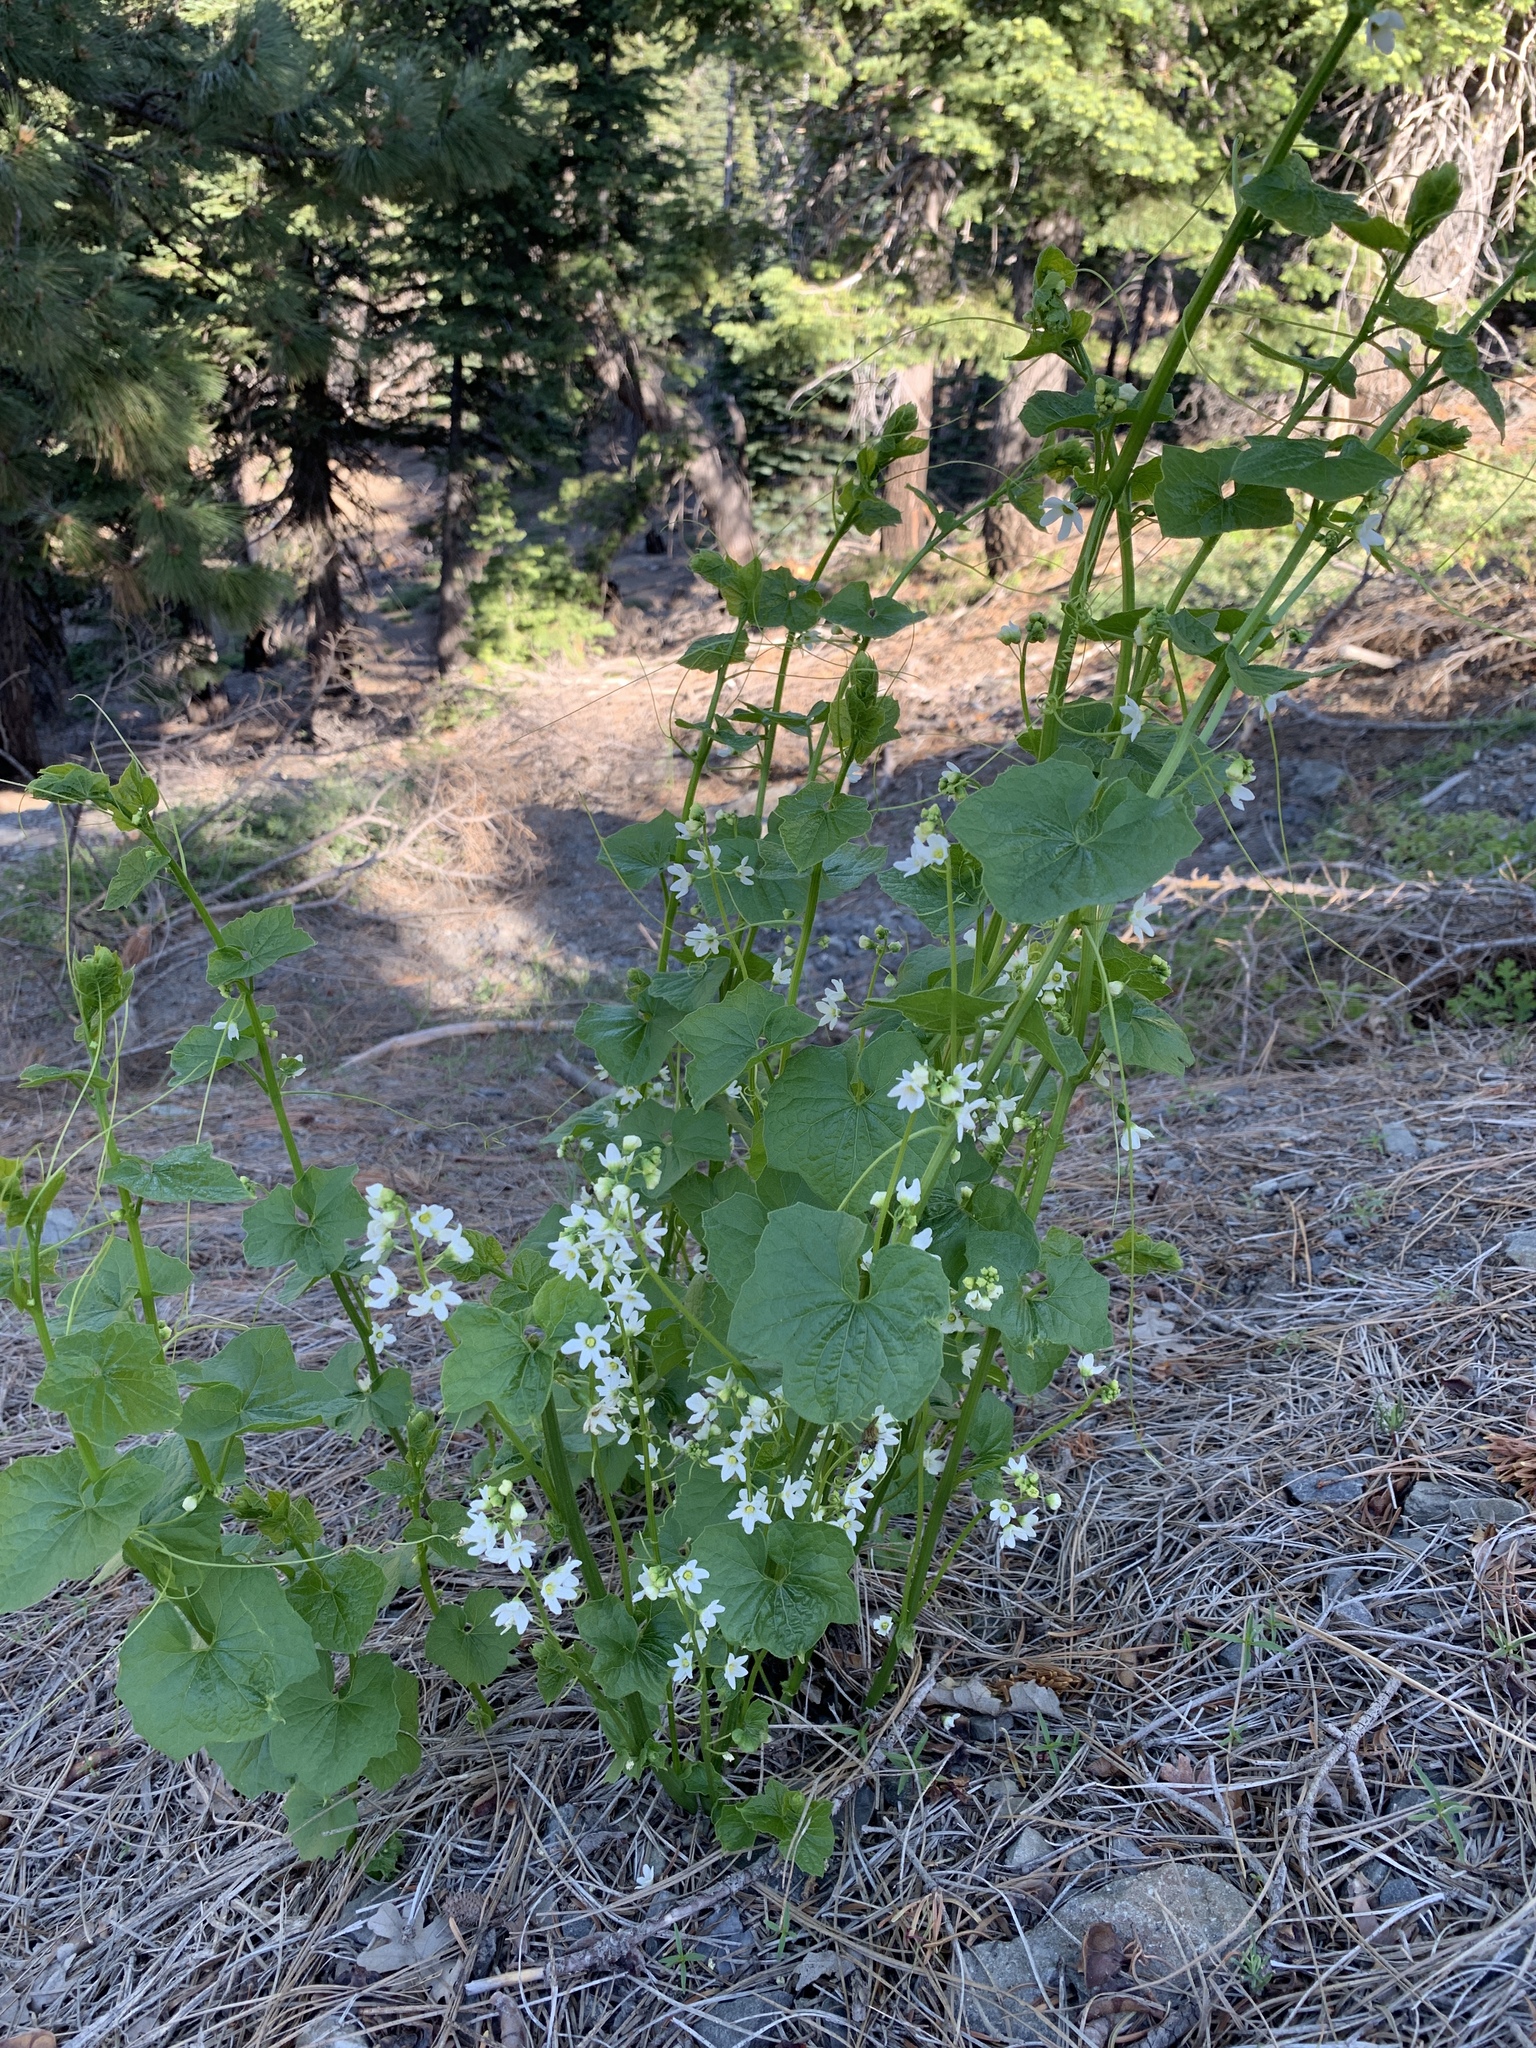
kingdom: Plantae
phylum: Tracheophyta
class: Magnoliopsida
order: Cucurbitales
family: Cucurbitaceae
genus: Marah
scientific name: Marah oregana
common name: Coastal manroot
